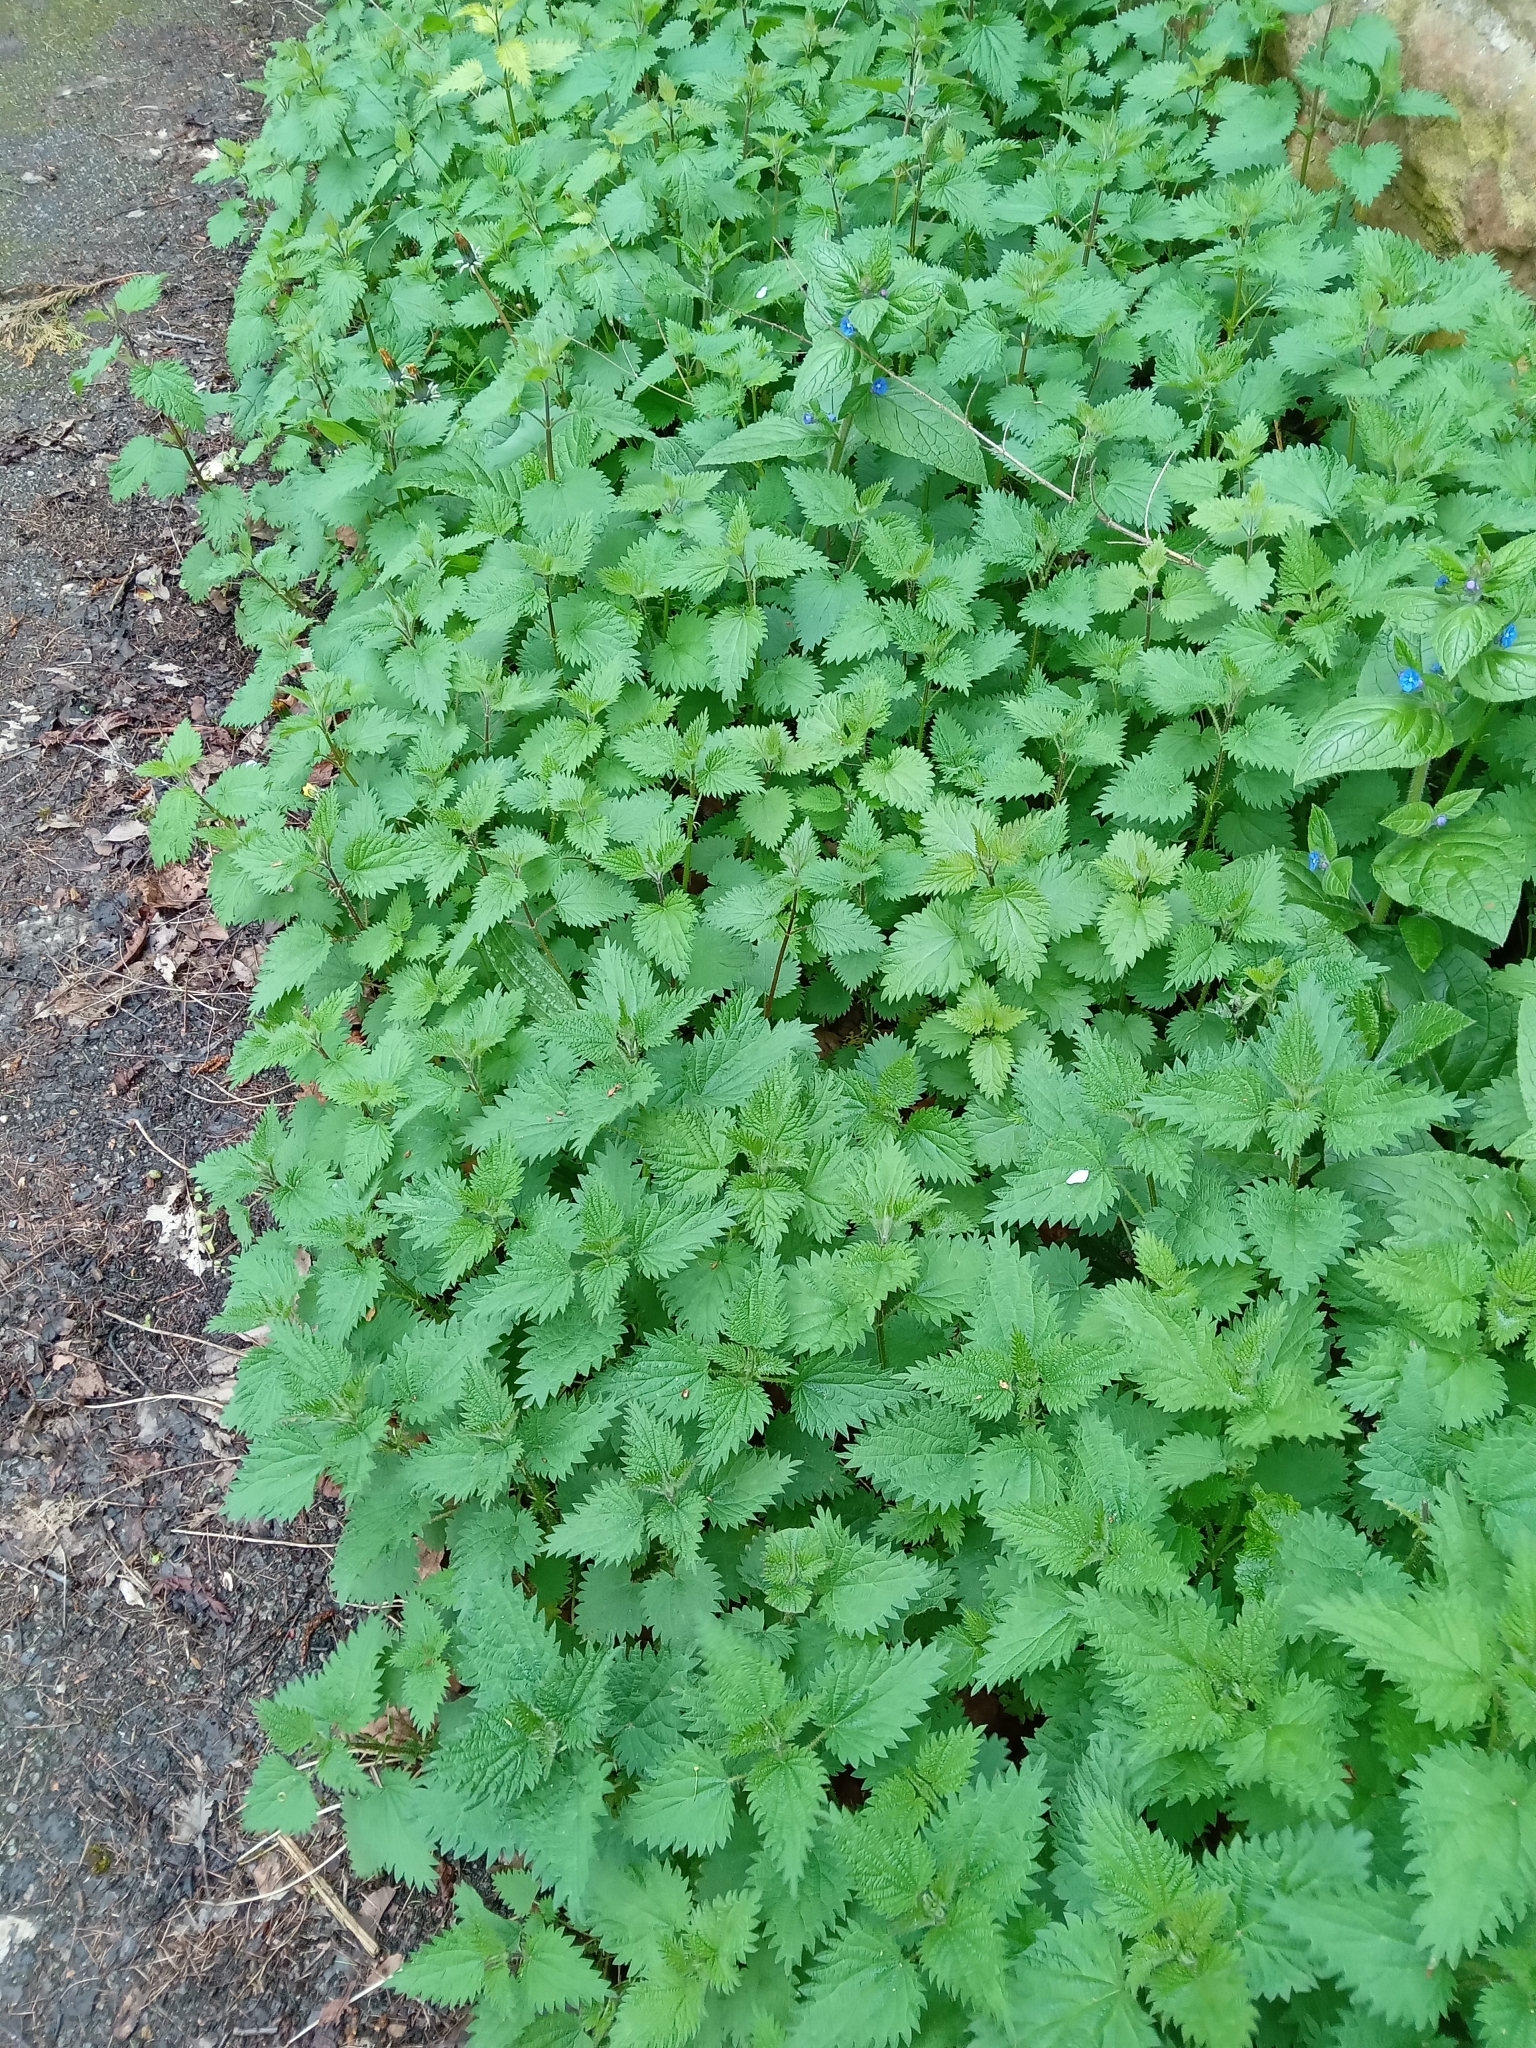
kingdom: Plantae
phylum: Tracheophyta
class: Magnoliopsida
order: Rosales
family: Urticaceae
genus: Urtica
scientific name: Urtica dioica
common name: Common nettle
